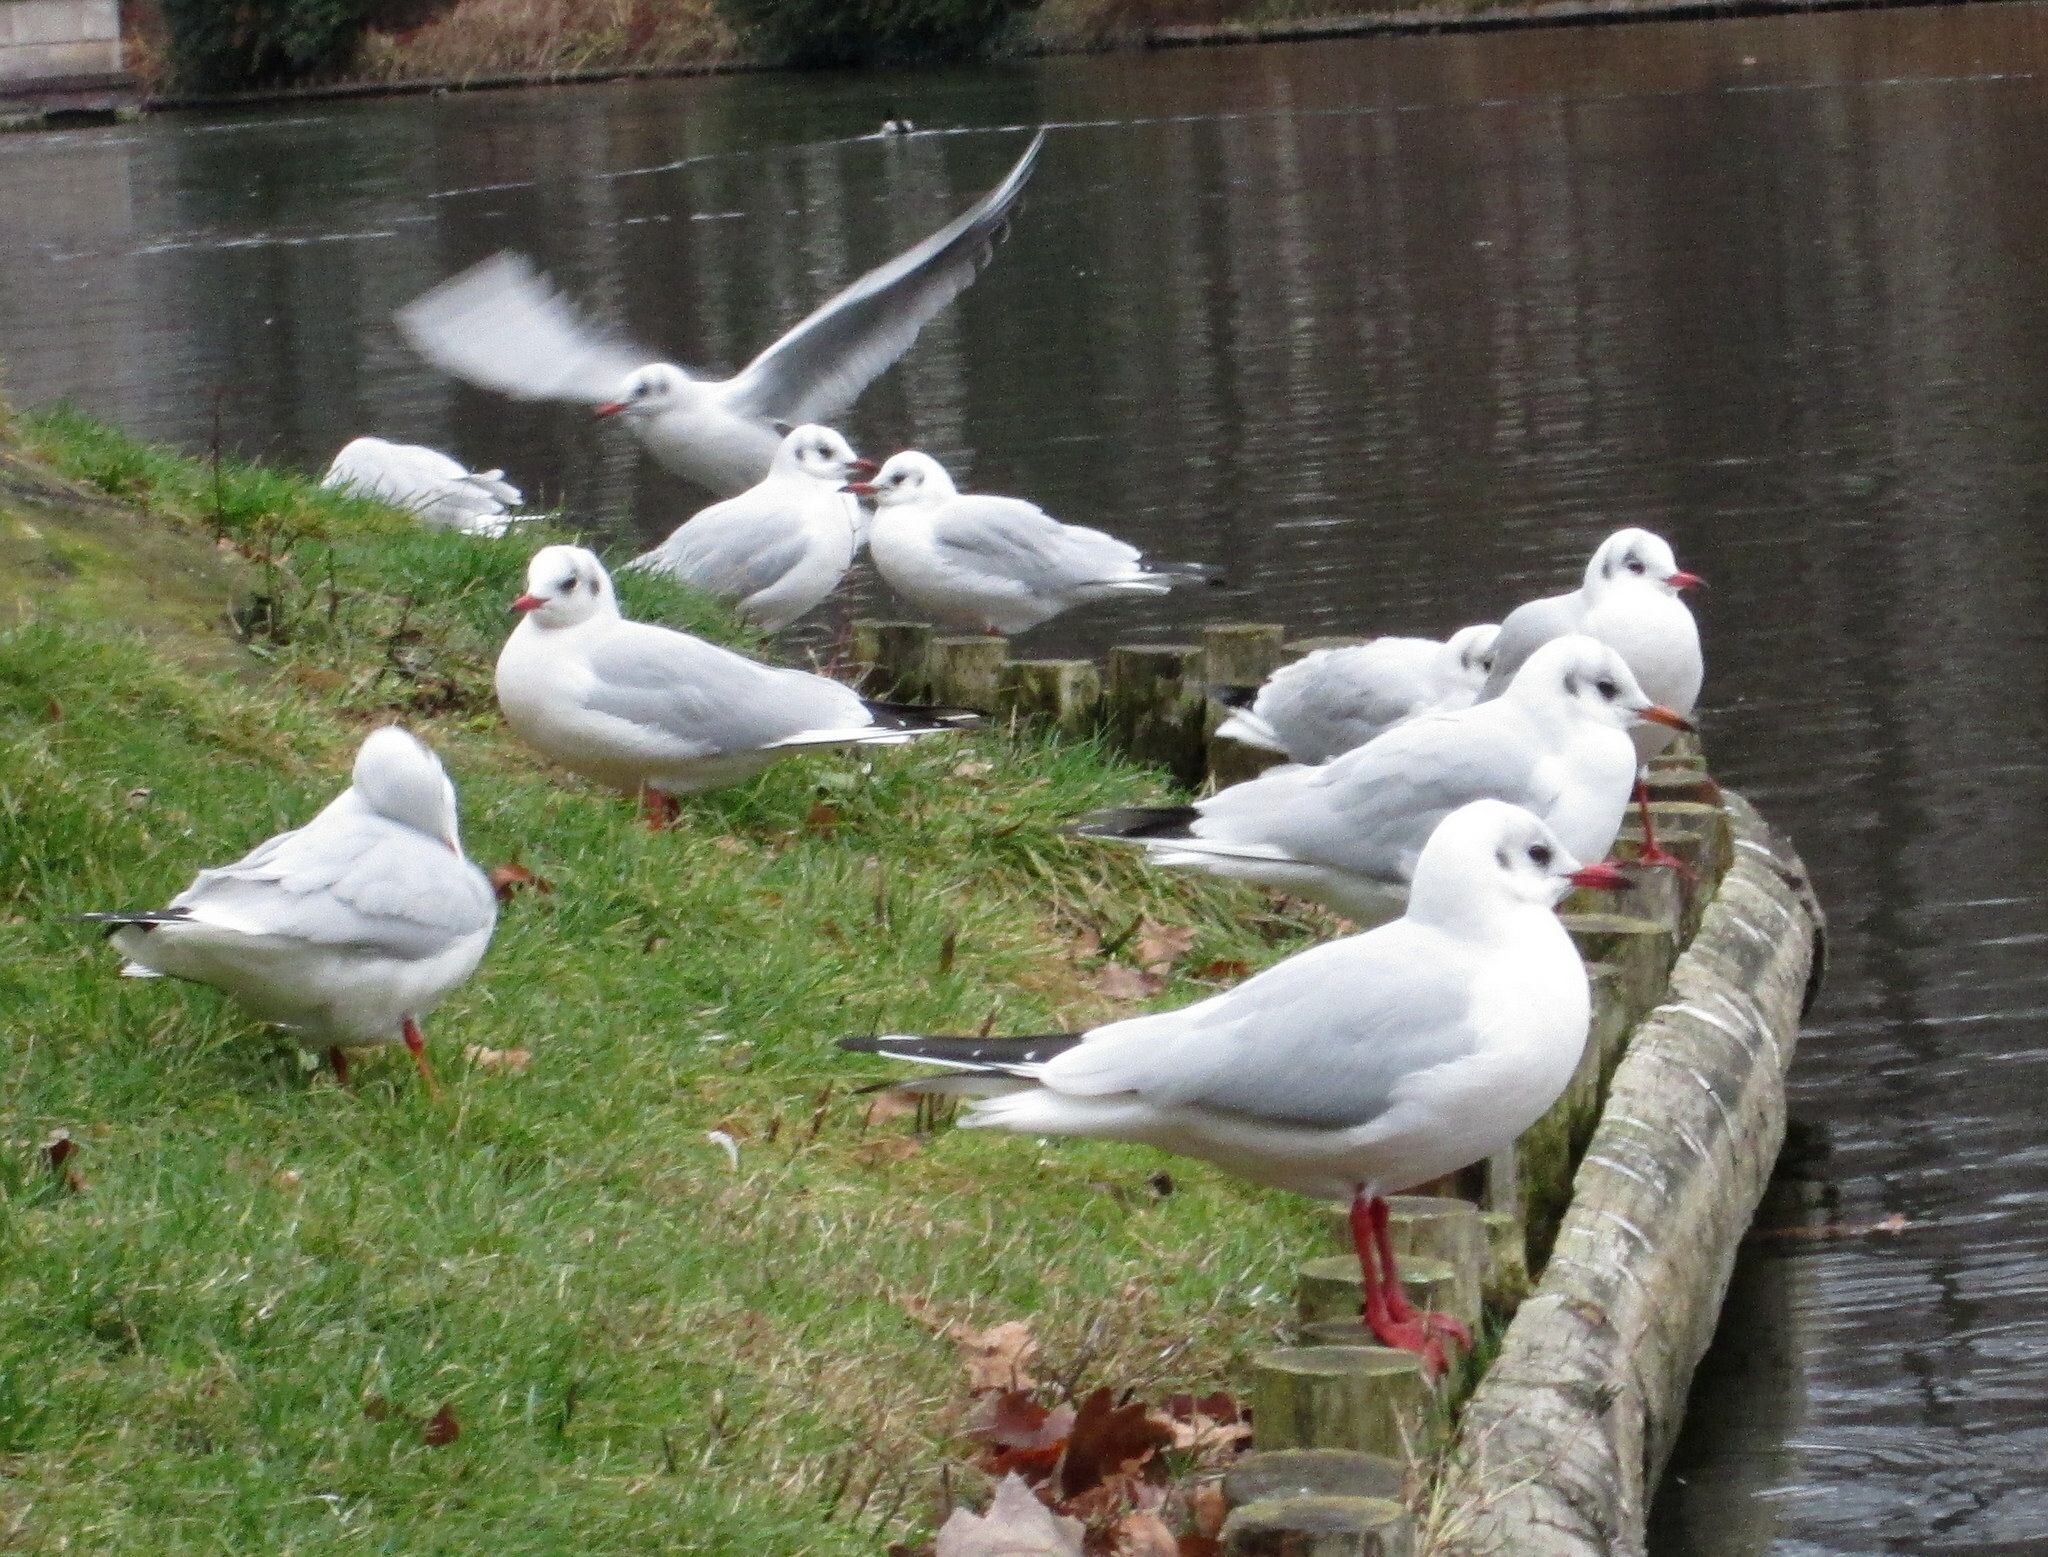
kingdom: Animalia
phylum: Chordata
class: Aves
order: Charadriiformes
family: Laridae
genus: Chroicocephalus
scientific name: Chroicocephalus ridibundus
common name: Black-headed gull
